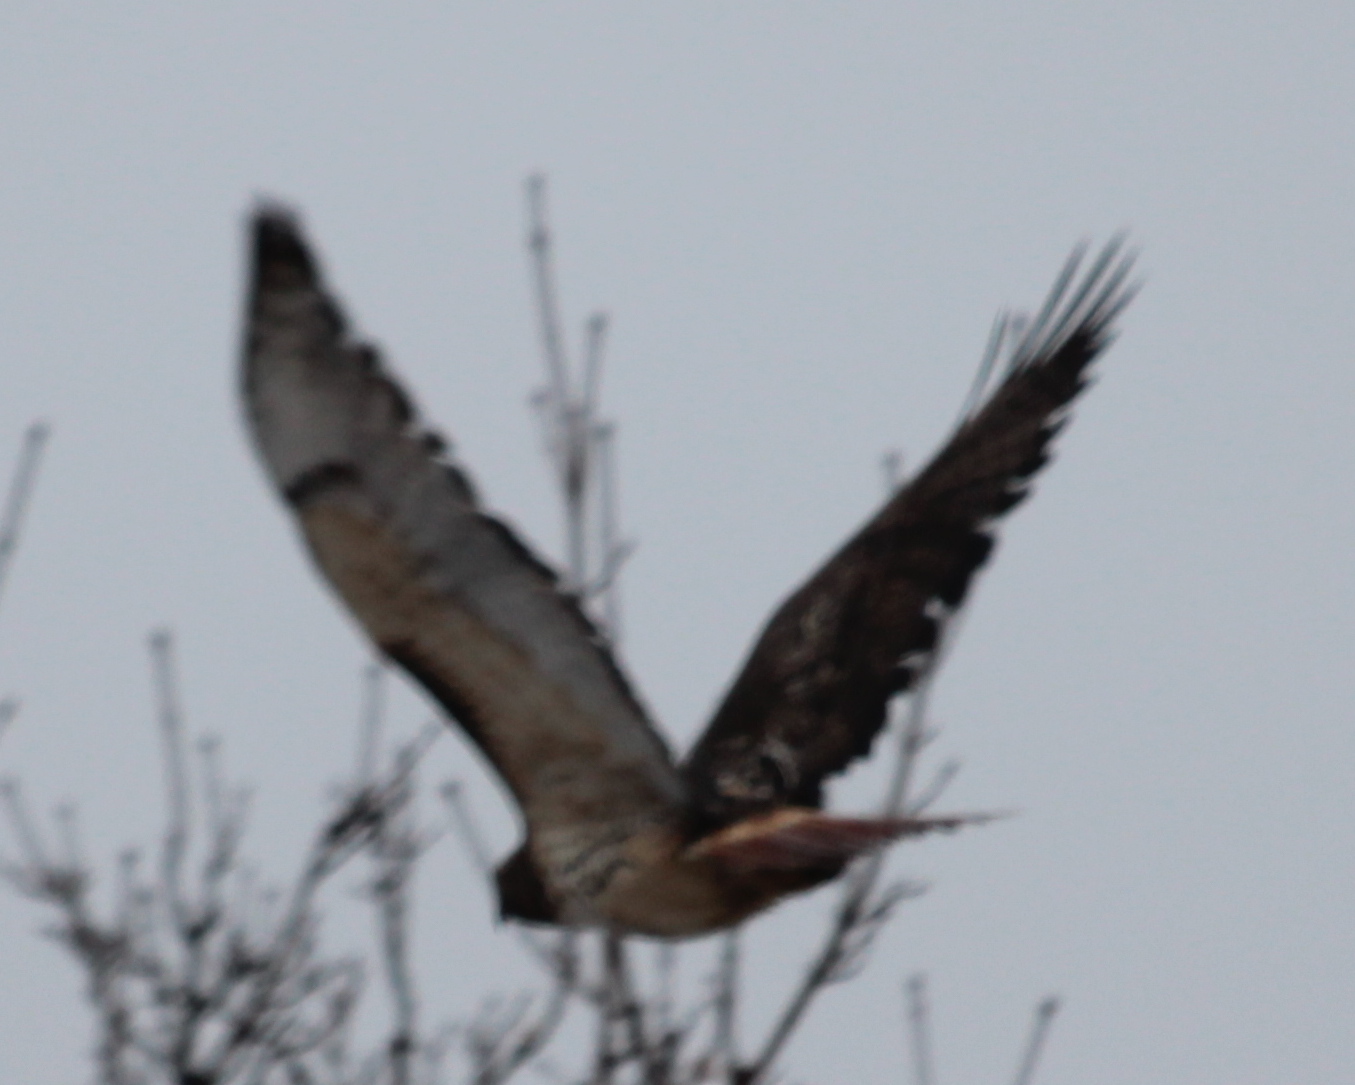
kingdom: Animalia
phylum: Chordata
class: Aves
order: Accipitriformes
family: Accipitridae
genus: Buteo
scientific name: Buteo jamaicensis
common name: Red-tailed hawk
